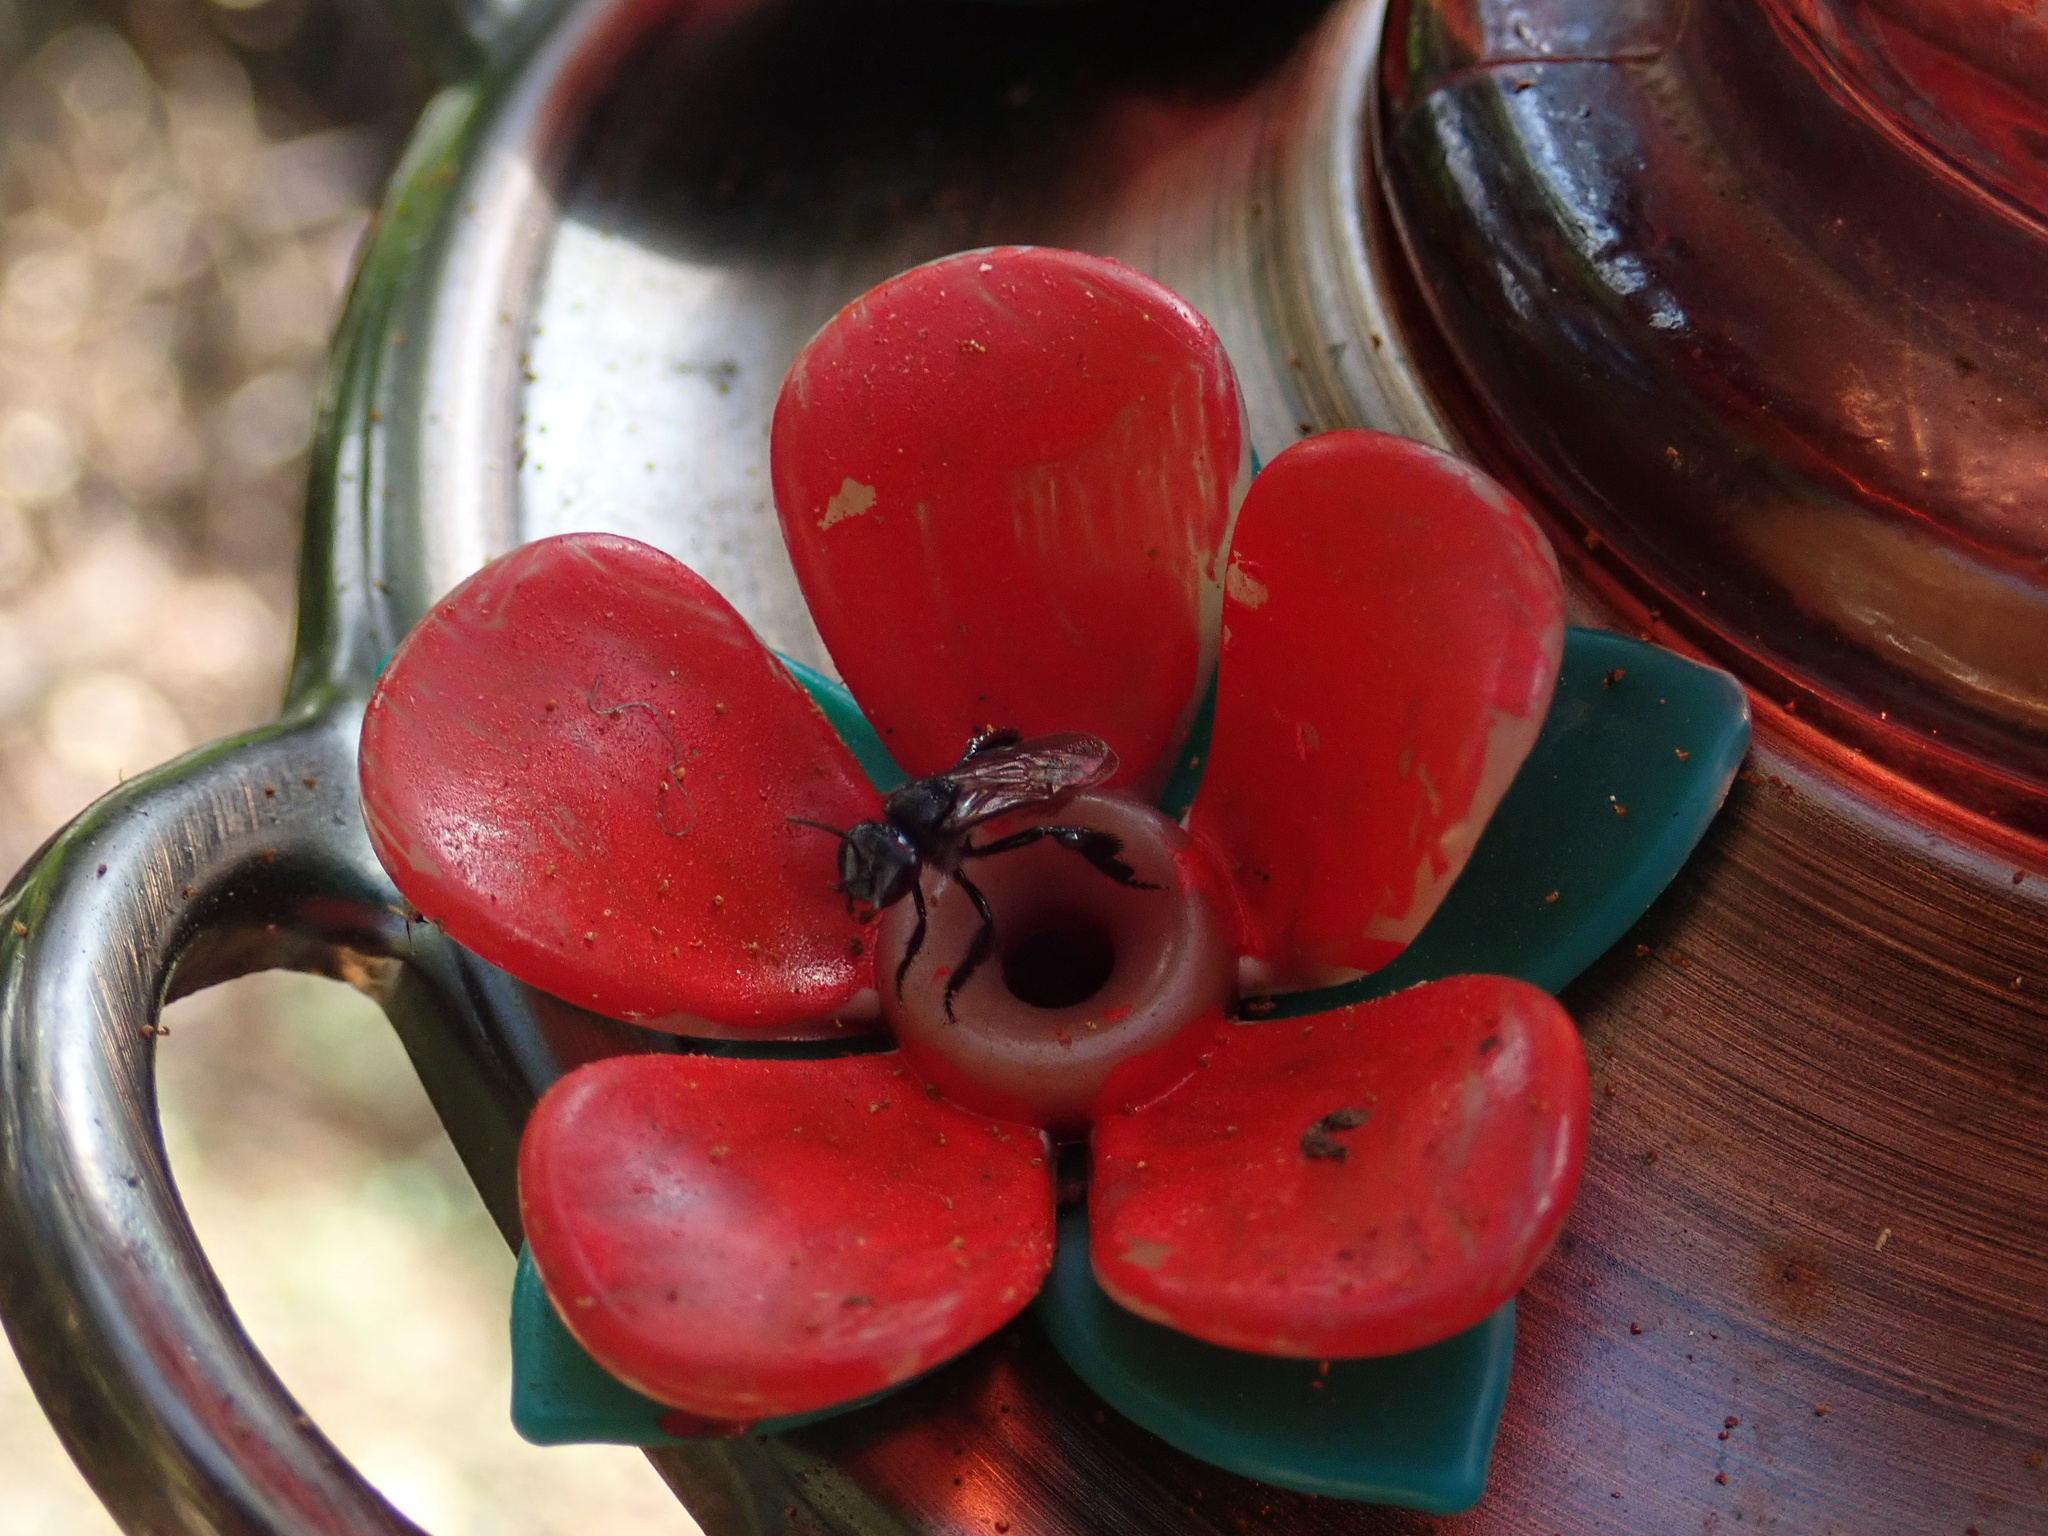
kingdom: Animalia
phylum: Arthropoda
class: Insecta
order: Hymenoptera
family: Apidae
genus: Trigona
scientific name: Trigona fulviventris
